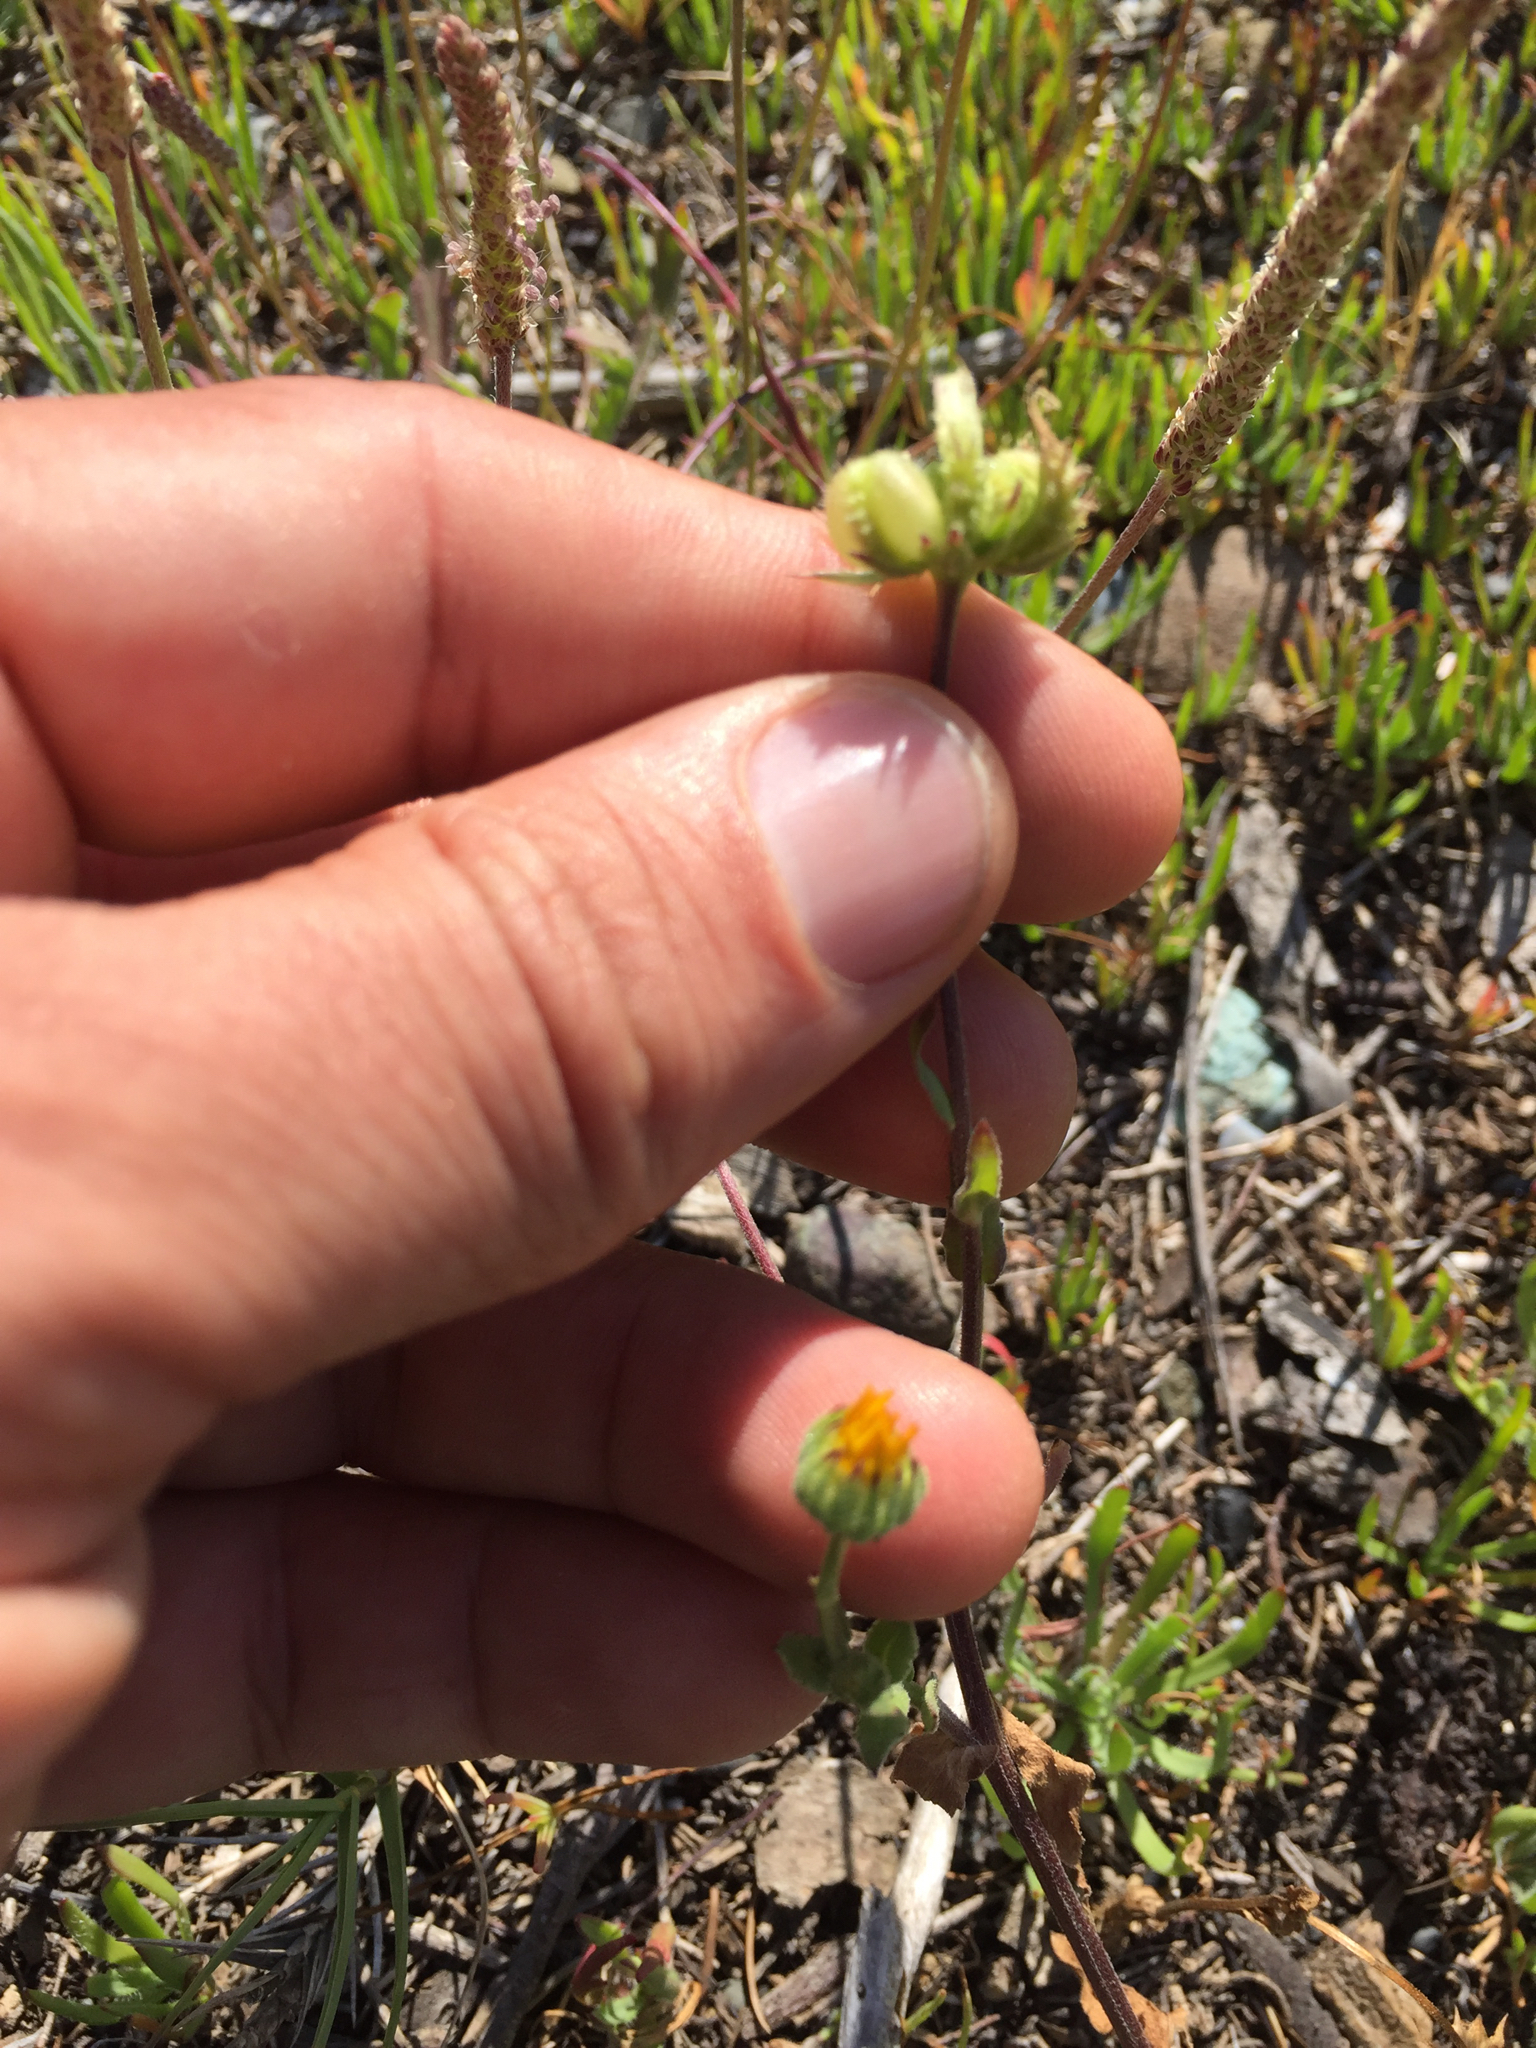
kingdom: Plantae
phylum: Tracheophyta
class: Magnoliopsida
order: Asterales
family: Asteraceae
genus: Calendula
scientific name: Calendula arvensis
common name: Field marigold
